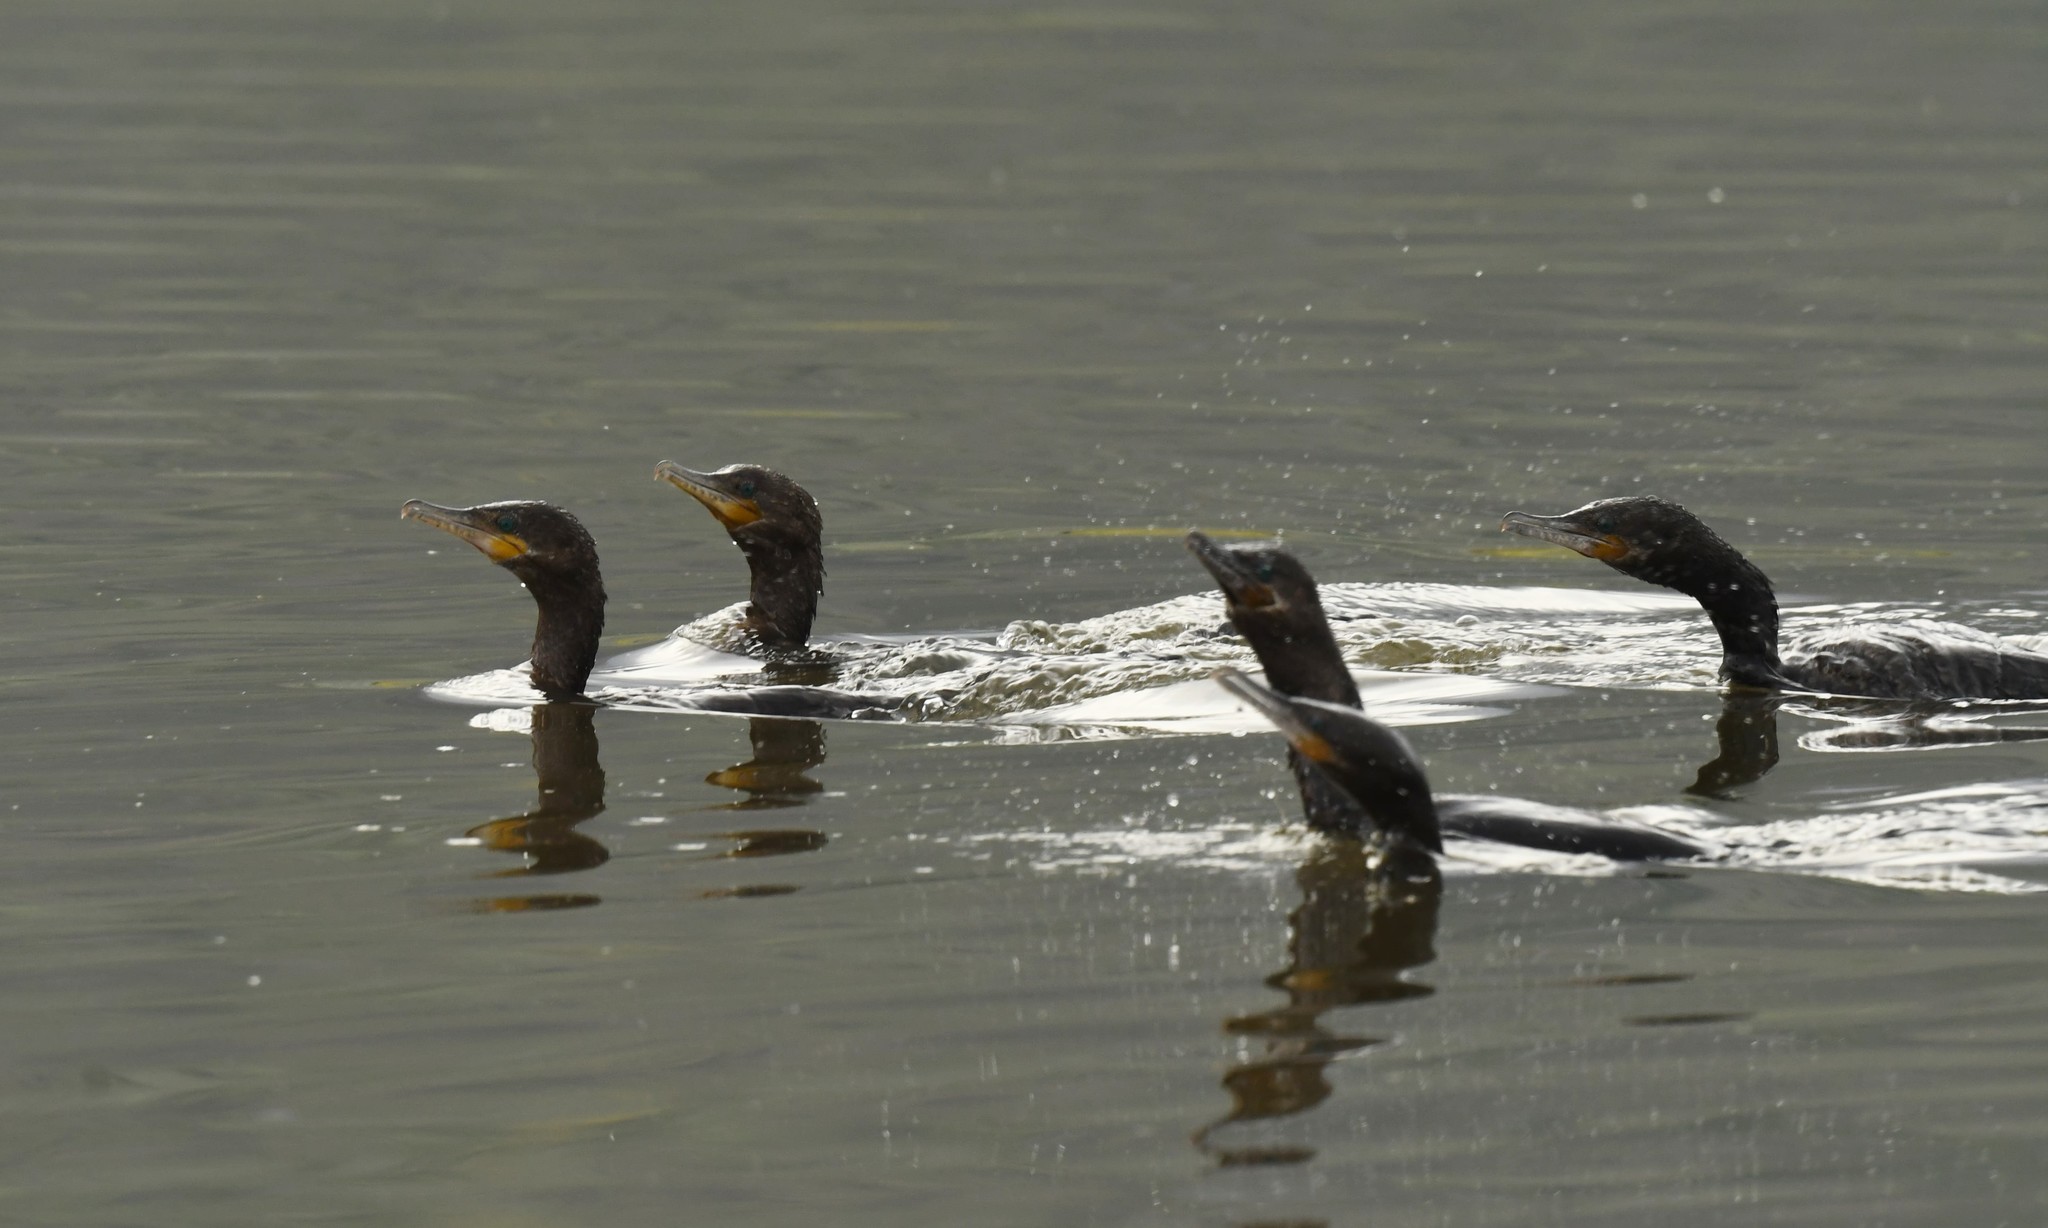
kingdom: Animalia
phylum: Chordata
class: Aves
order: Suliformes
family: Phalacrocoracidae
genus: Phalacrocorax
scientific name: Phalacrocorax brasilianus
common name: Neotropic cormorant
